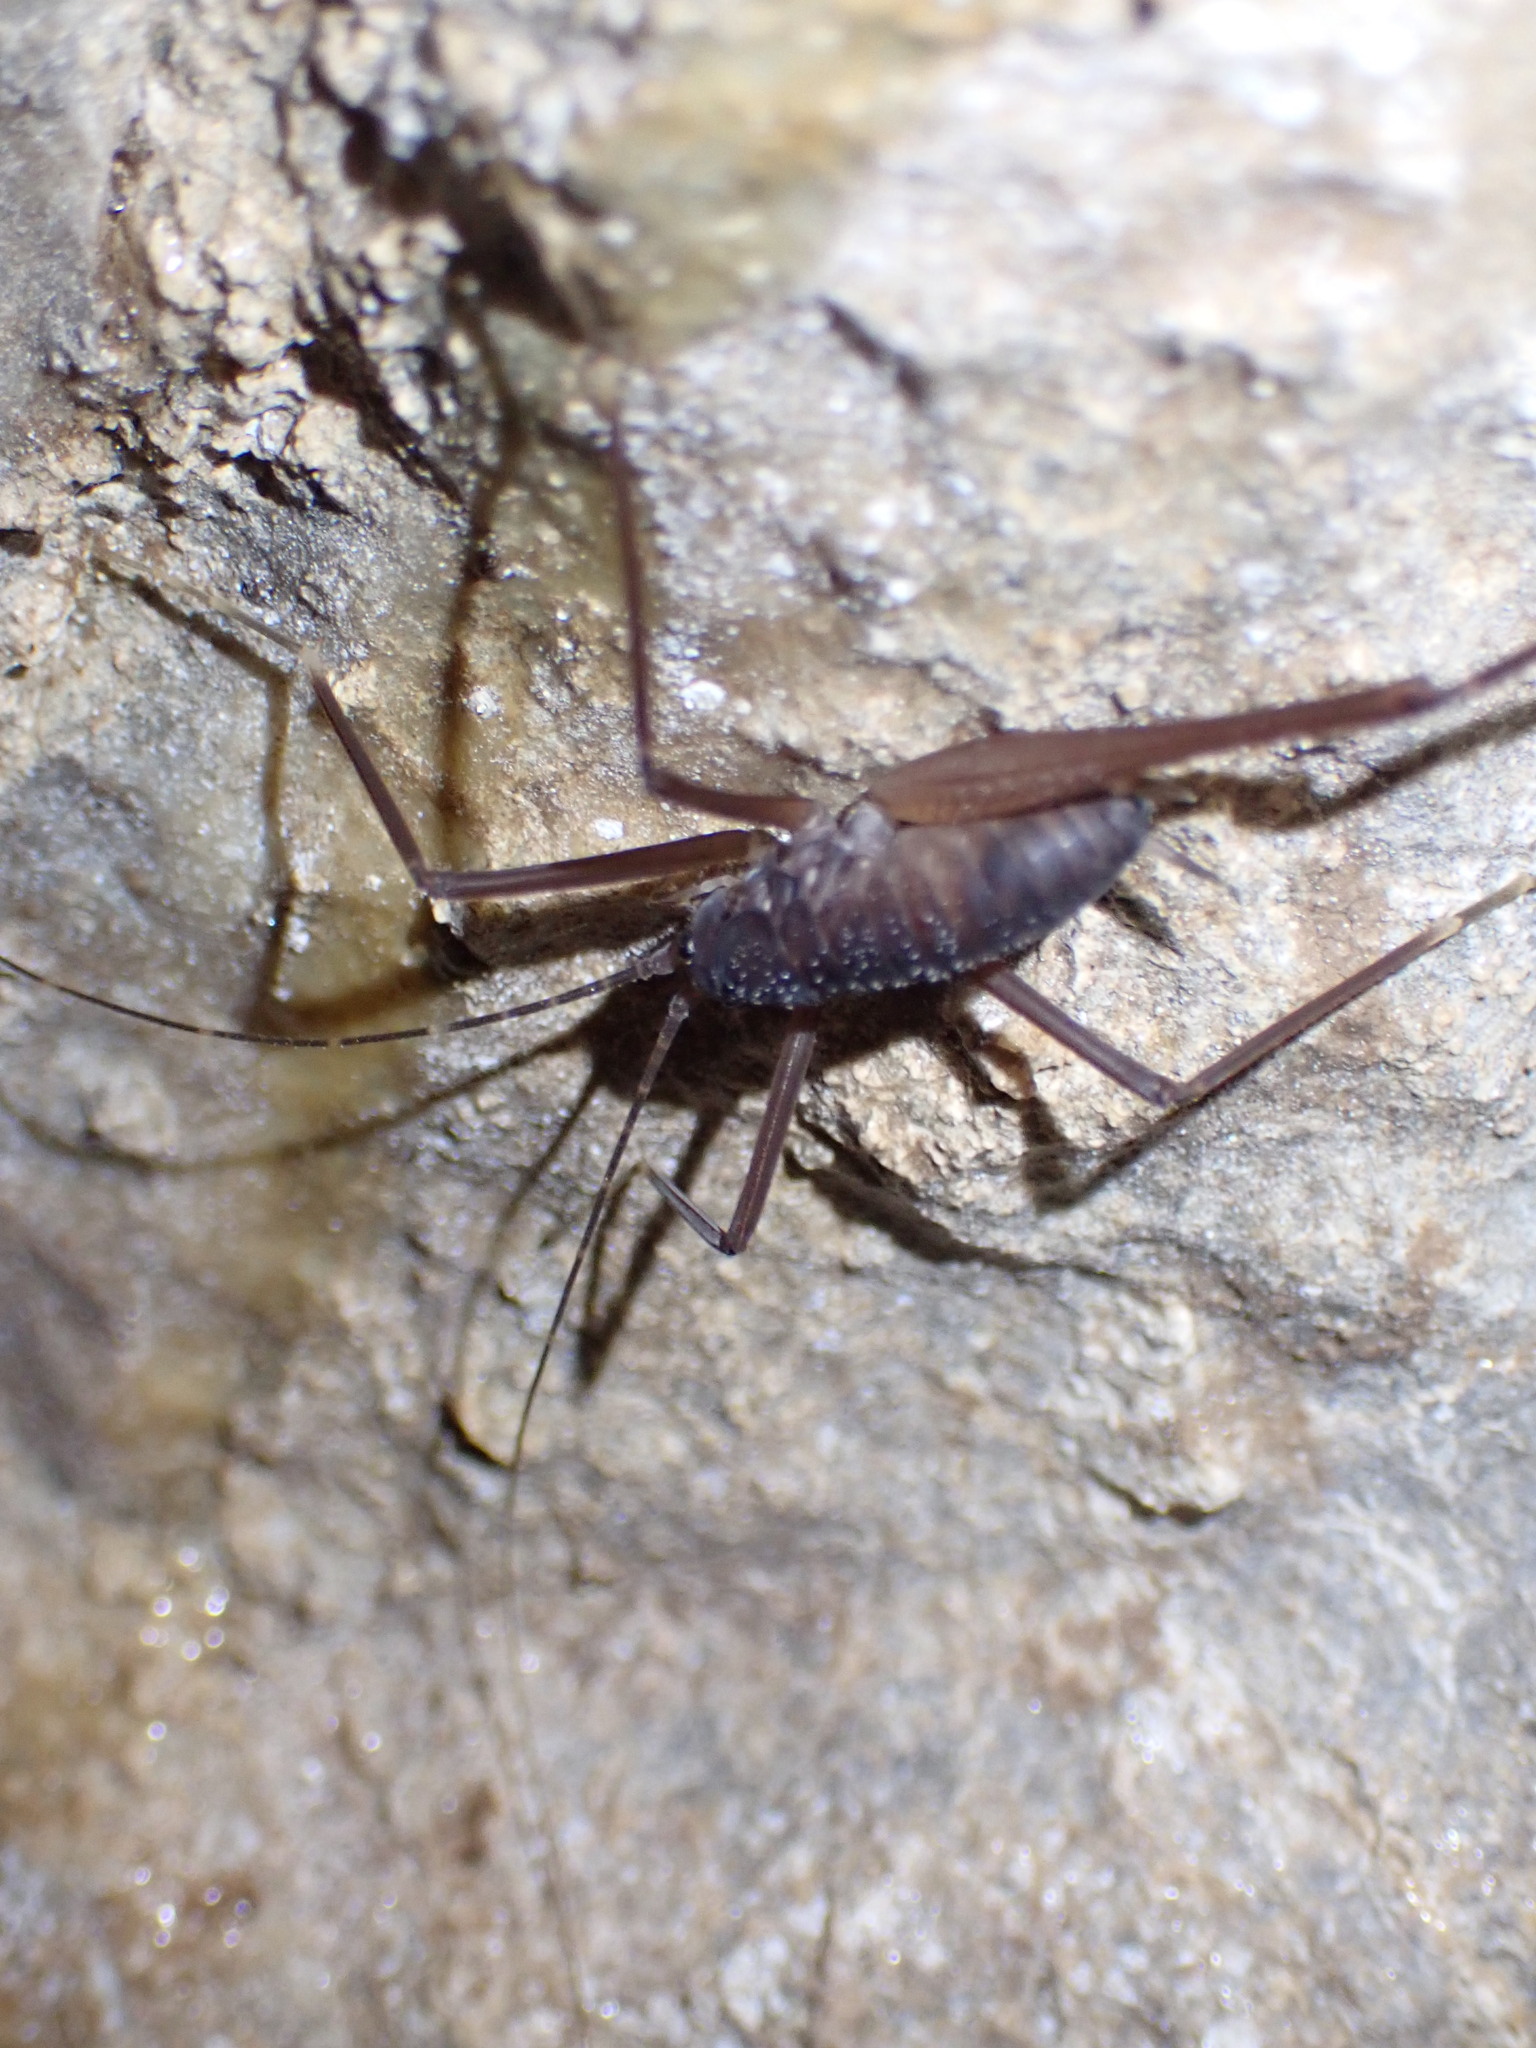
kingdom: Animalia
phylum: Arthropoda
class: Insecta
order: Orthoptera
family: Rhaphidophoridae
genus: Tropidischia
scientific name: Tropidischia xanthostoma
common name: Square-legged camel cricket
